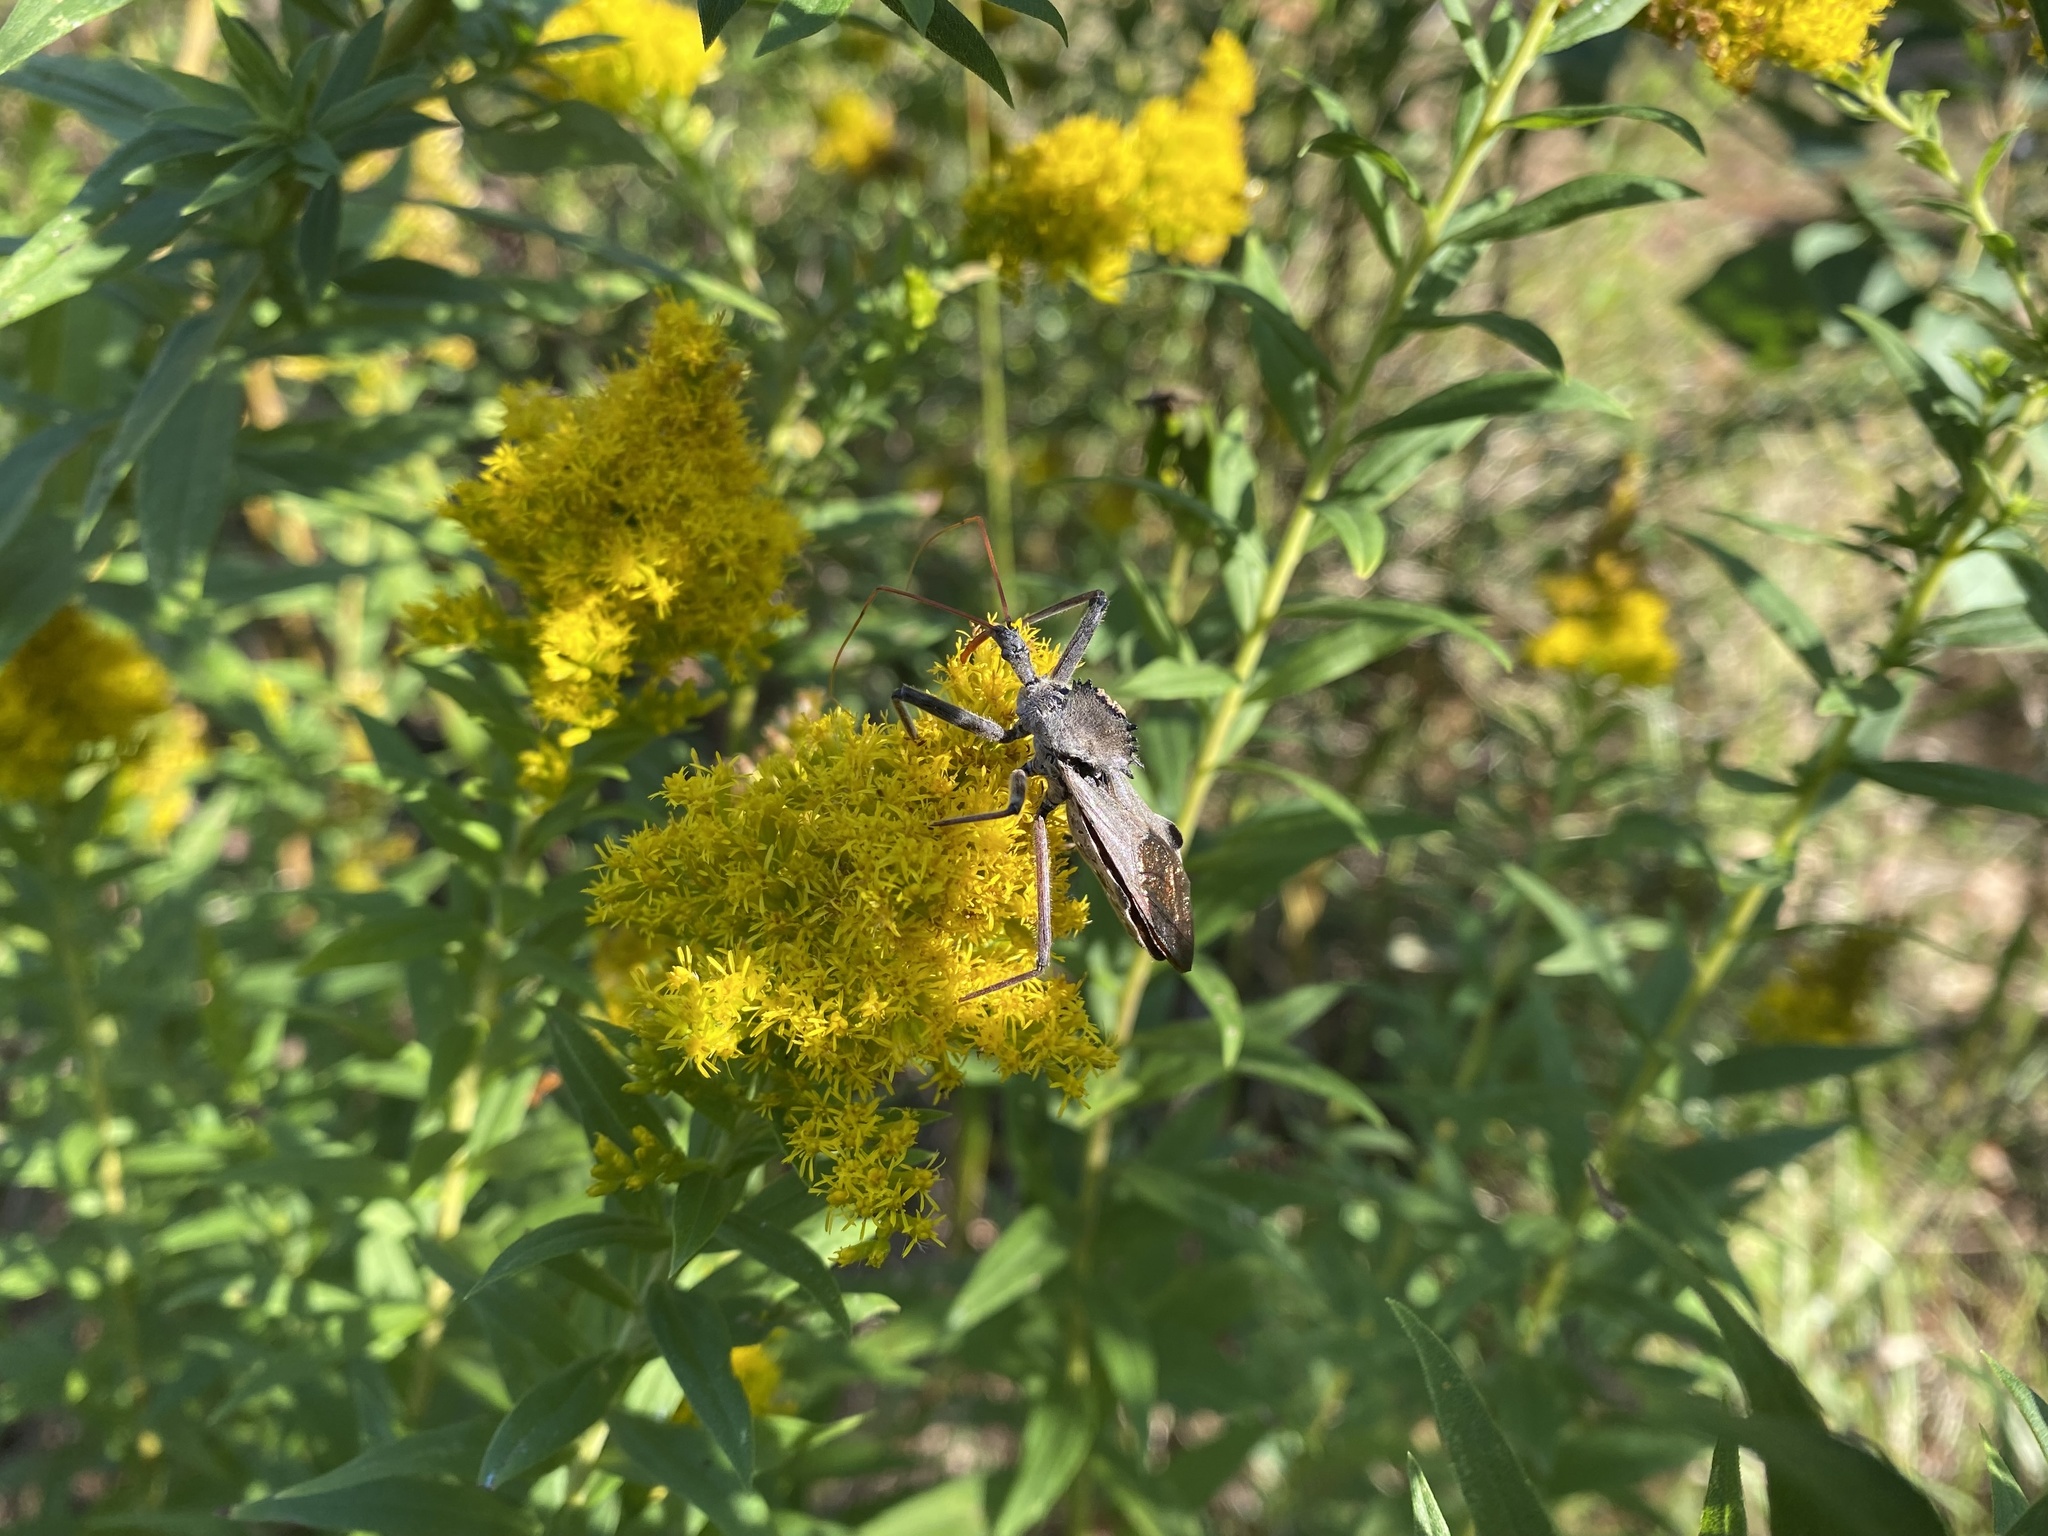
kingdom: Animalia
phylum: Arthropoda
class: Insecta
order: Hemiptera
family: Reduviidae
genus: Arilus
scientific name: Arilus cristatus
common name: North american wheel bug
